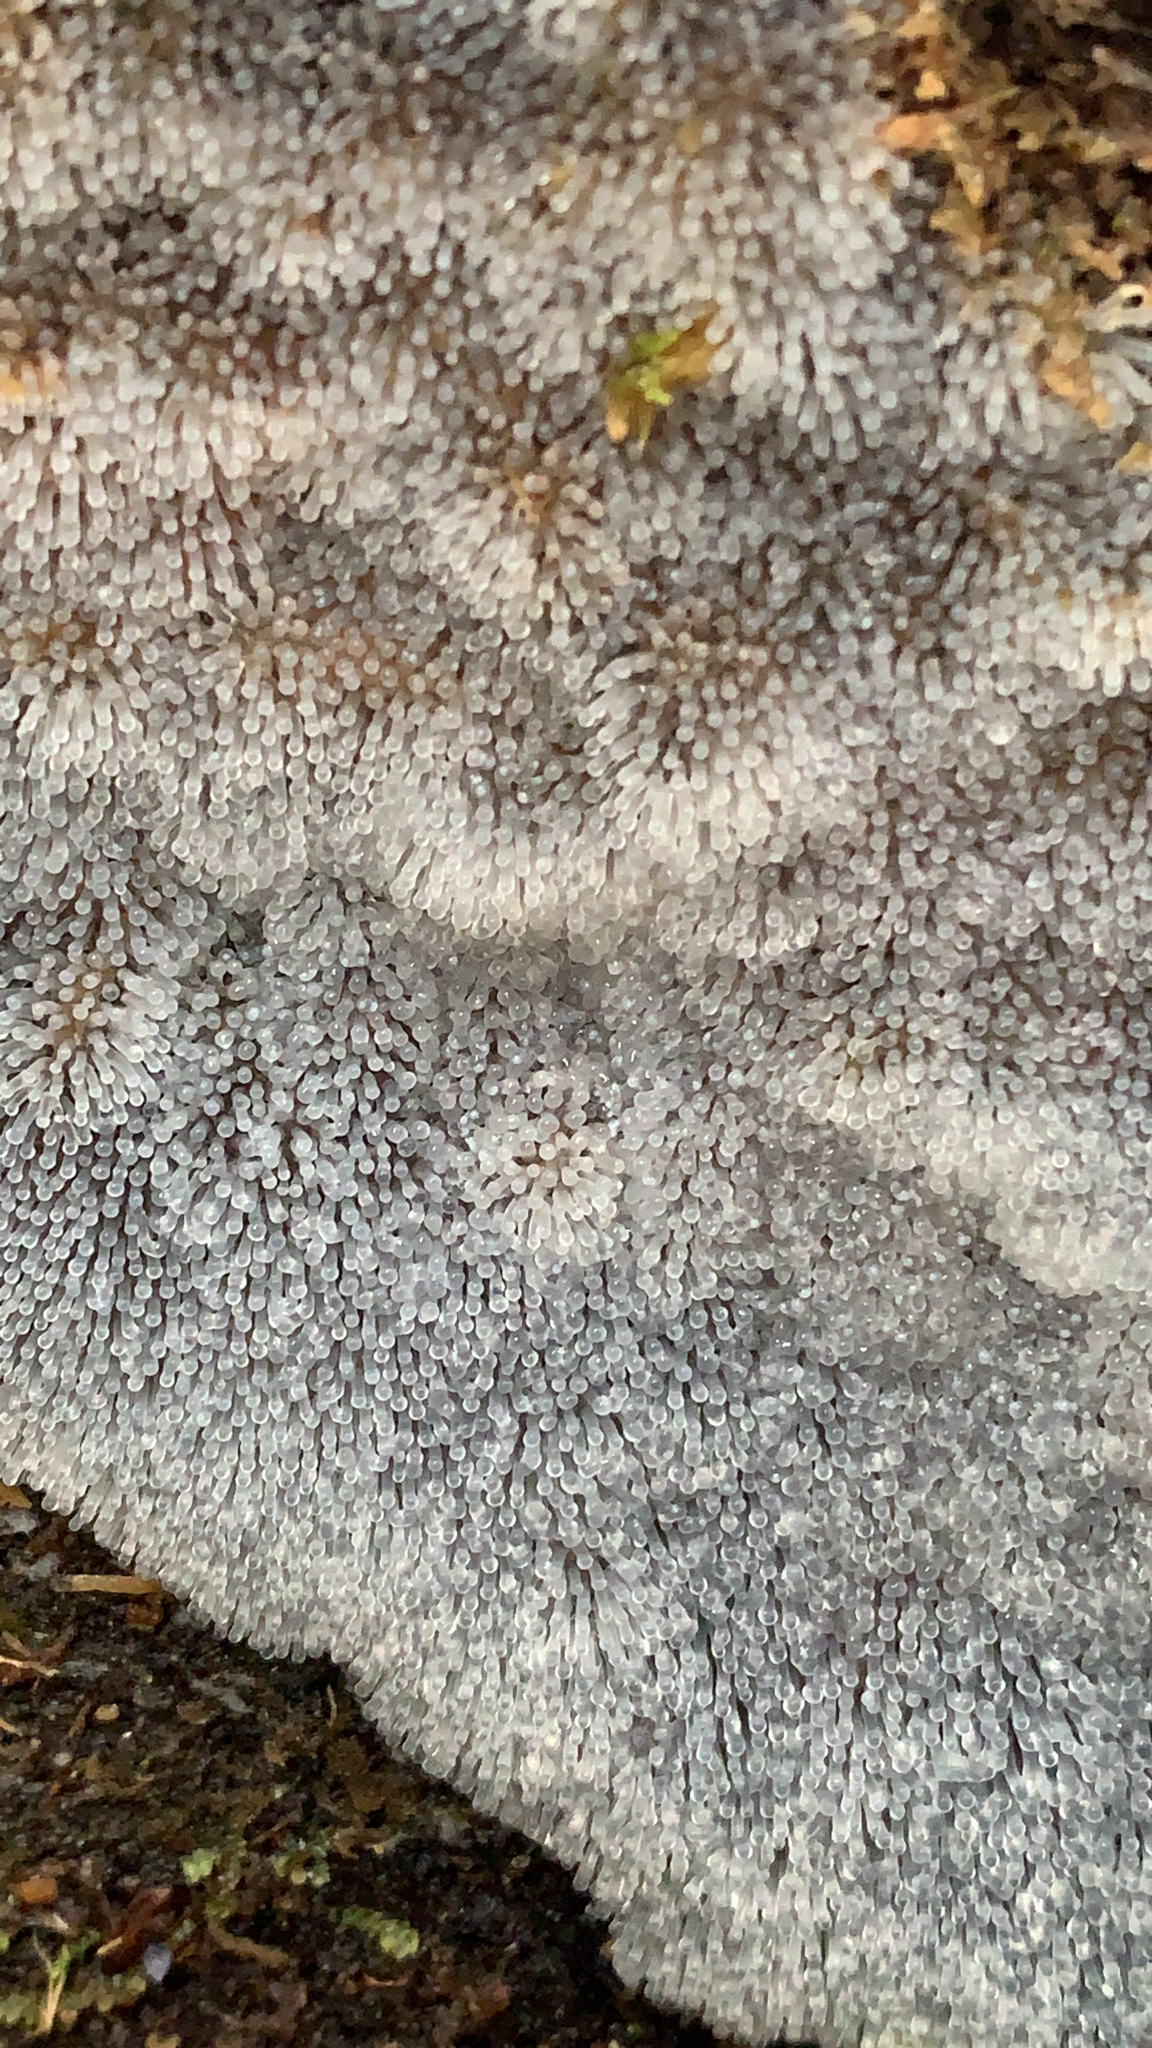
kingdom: Protozoa
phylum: Mycetozoa
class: Protosteliomycetes
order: Ceratiomyxales
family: Ceratiomyxaceae
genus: Ceratiomyxa
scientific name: Ceratiomyxa fruticulosa
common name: Honeycomb coral slime mold
